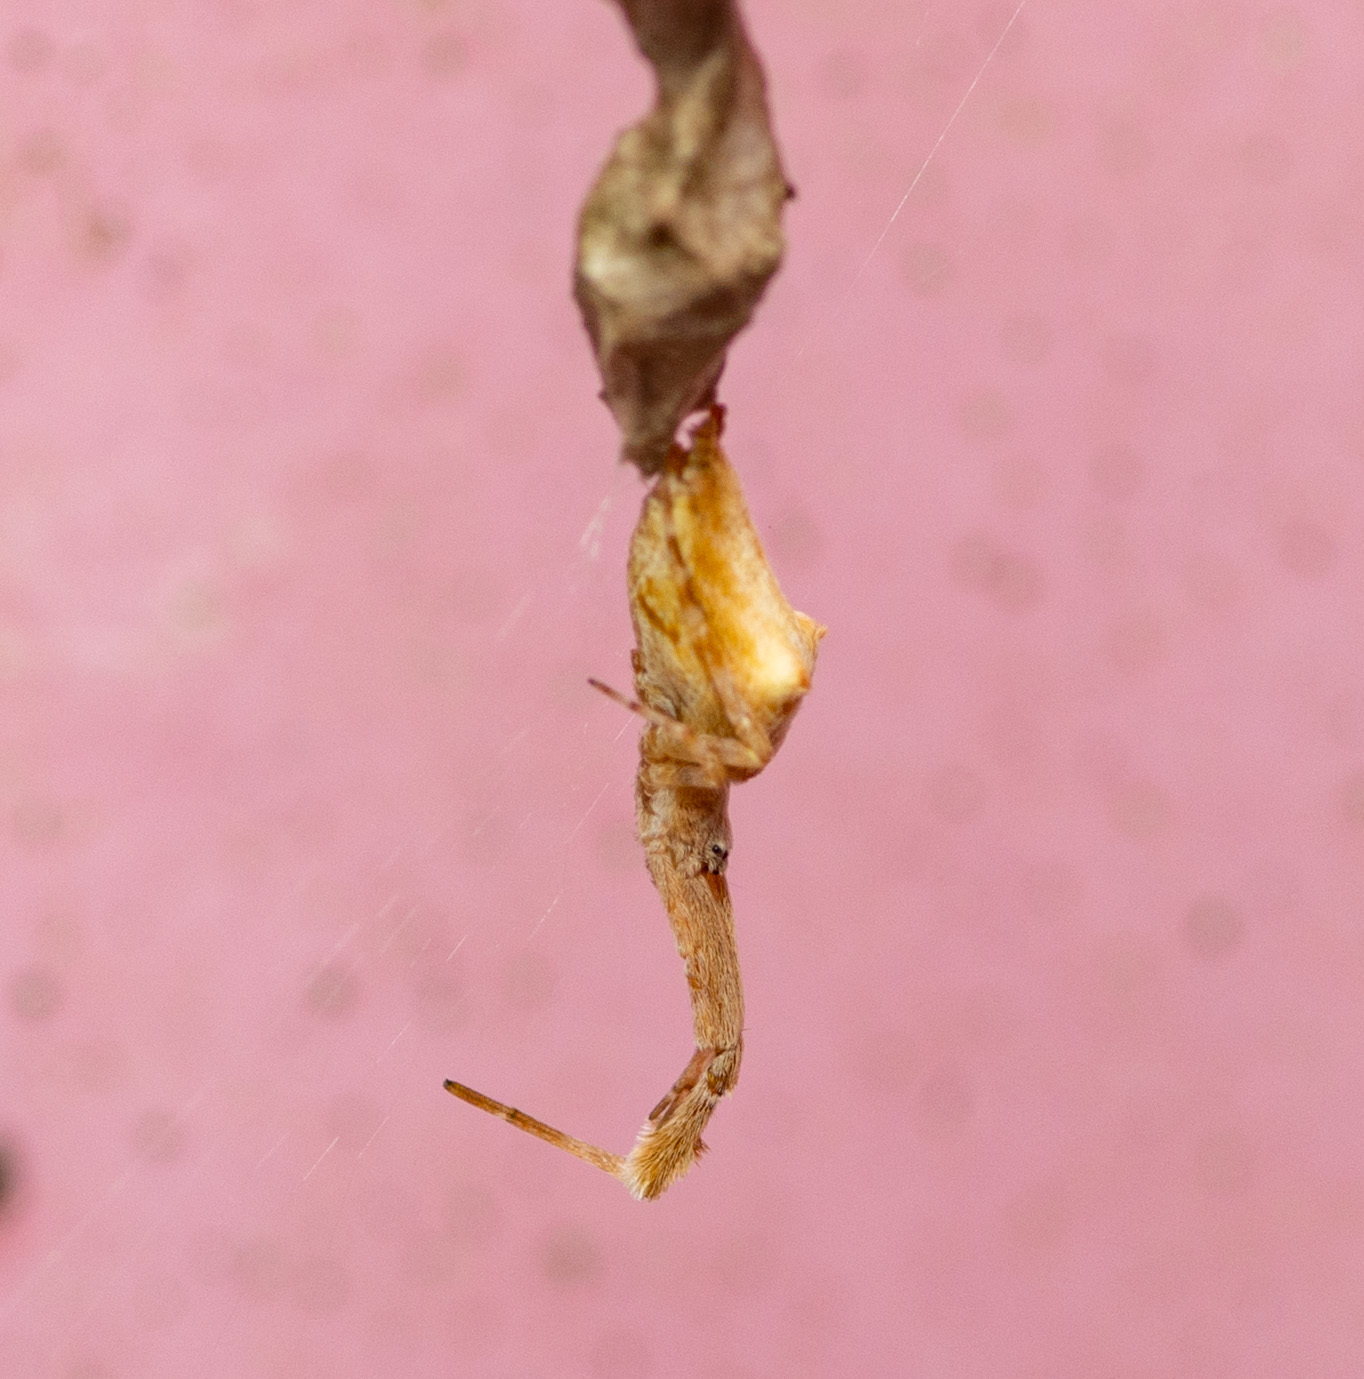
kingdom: Animalia
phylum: Arthropoda
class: Arachnida
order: Araneae
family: Uloboridae
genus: Uloborus
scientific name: Uloborus glomosus
